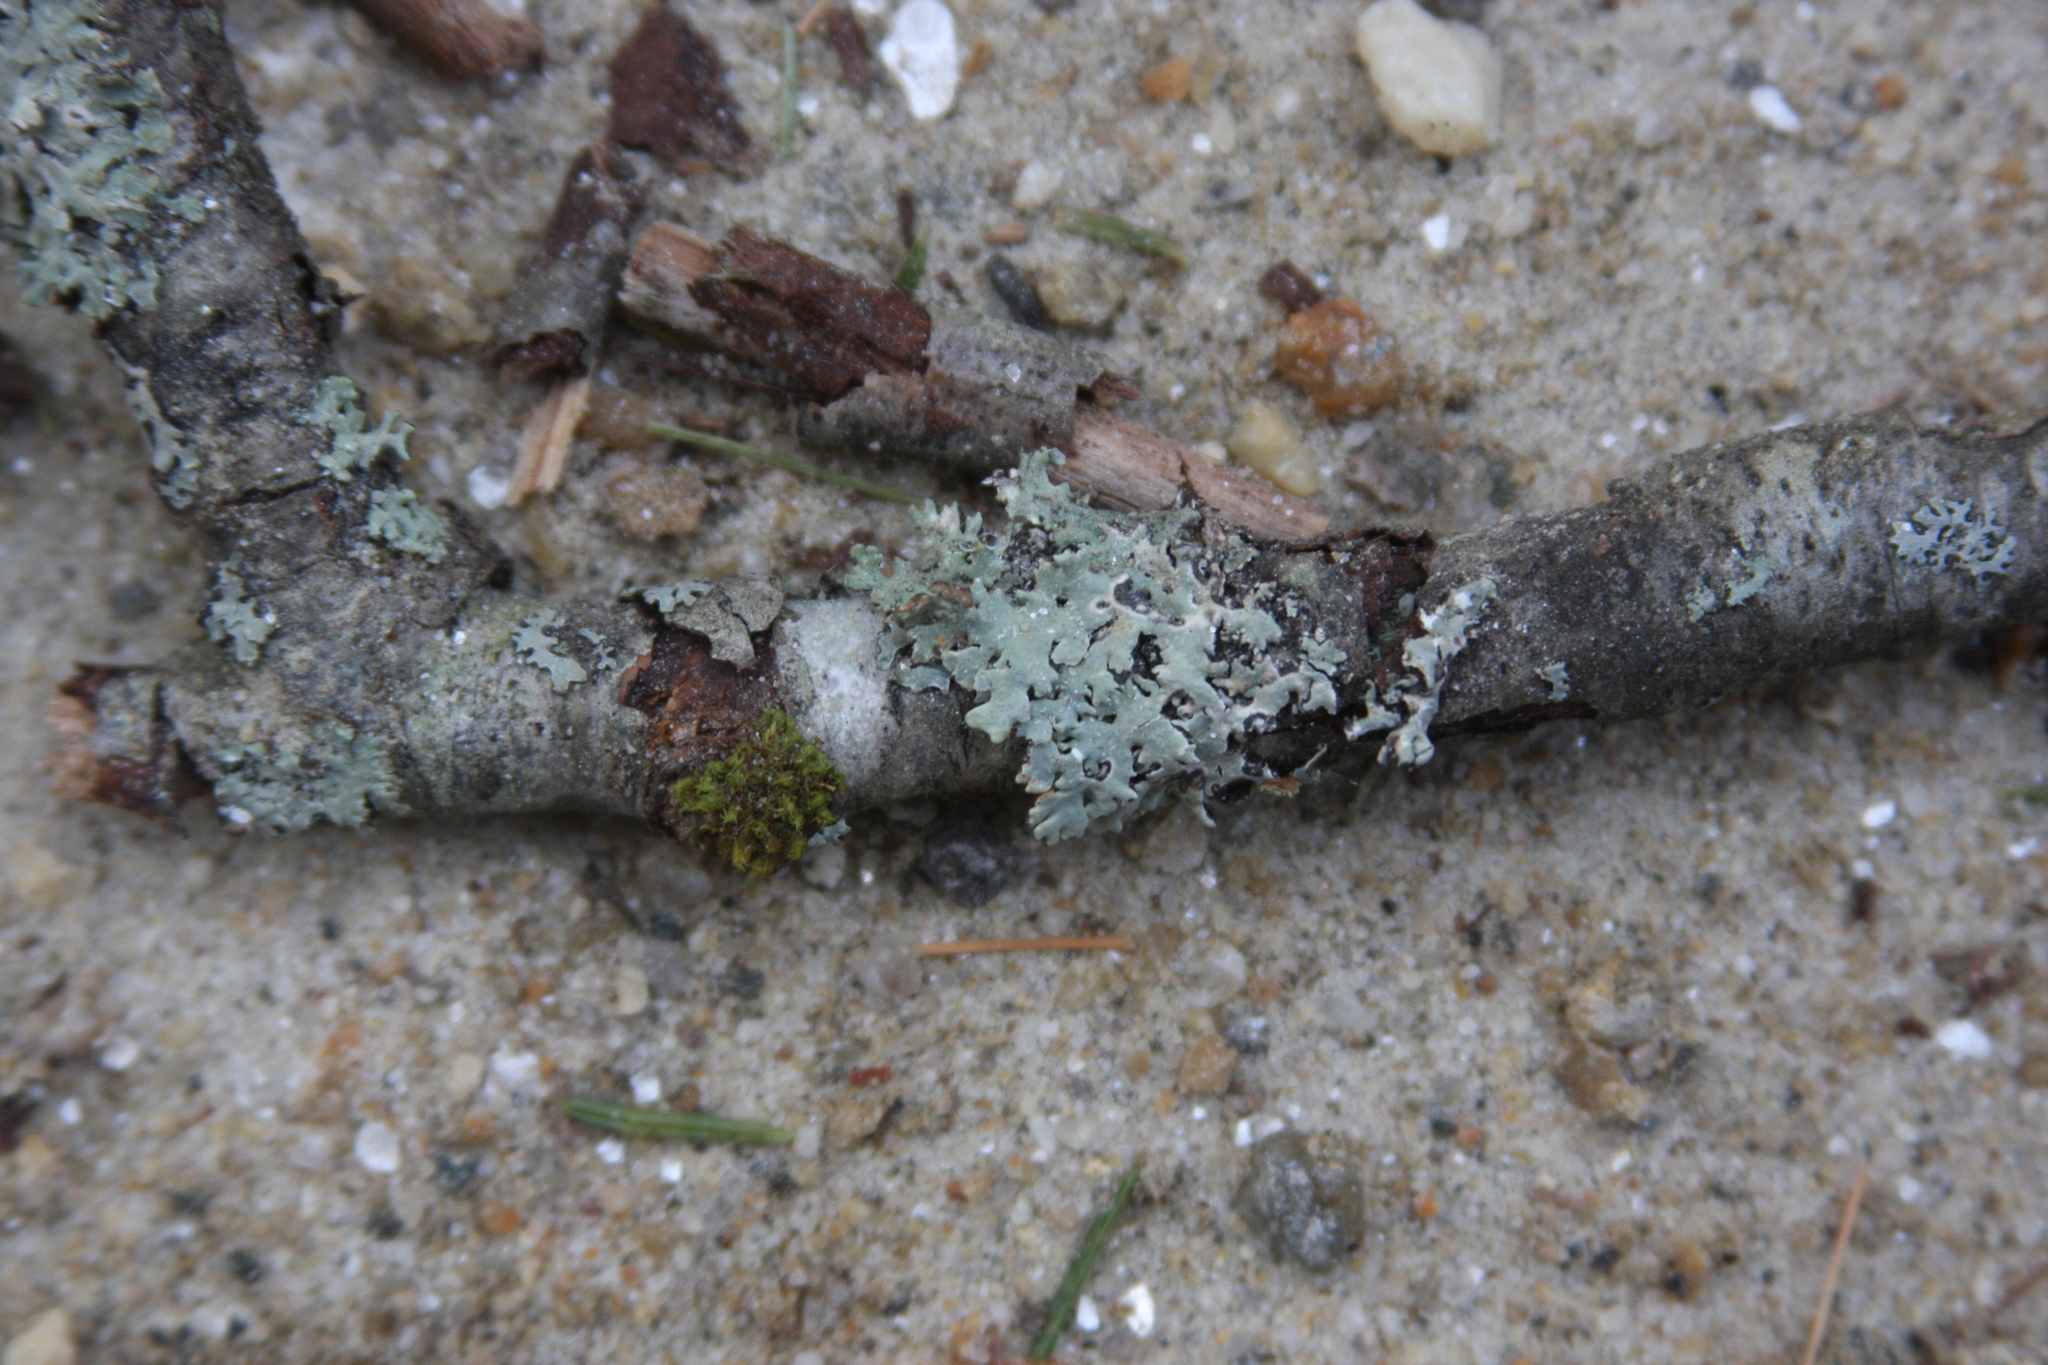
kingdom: Plantae
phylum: Bryophyta
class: Bryopsida
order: Orthotrichales
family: Orthotrichaceae
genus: Ulota
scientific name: Ulota crispa
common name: Crisped pincushion moss
